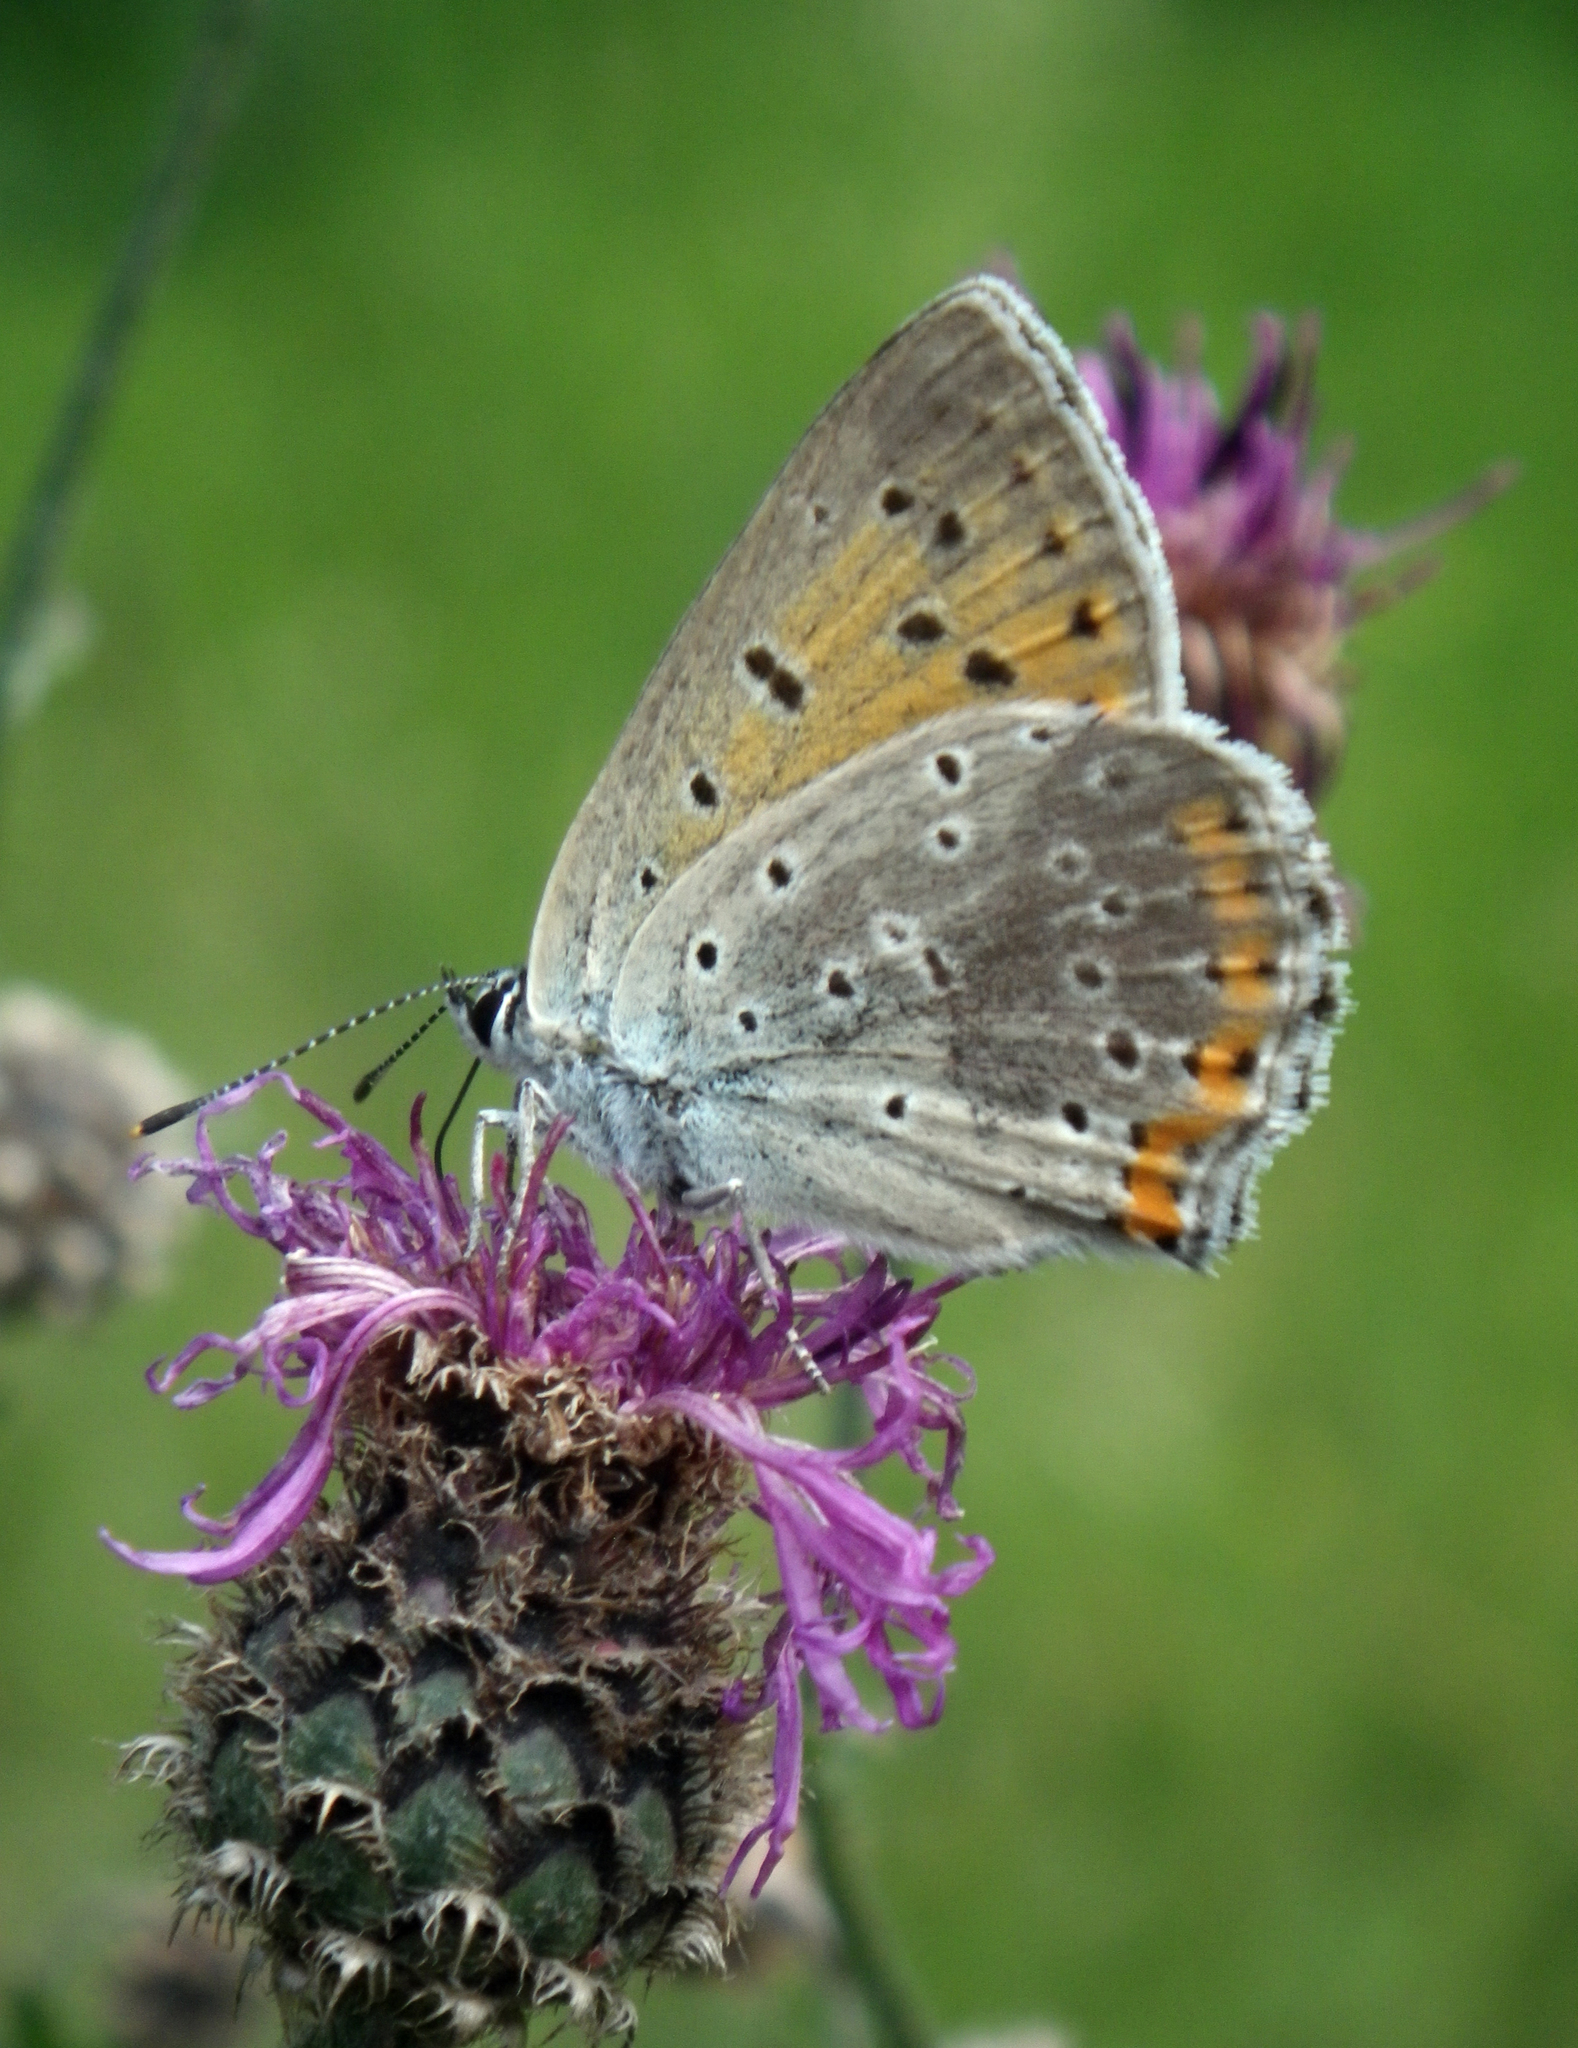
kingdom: Animalia
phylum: Arthropoda
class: Insecta
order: Lepidoptera
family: Lycaenidae
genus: Lycaena
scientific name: Lycaena alciphron
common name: Purple-shot copper
